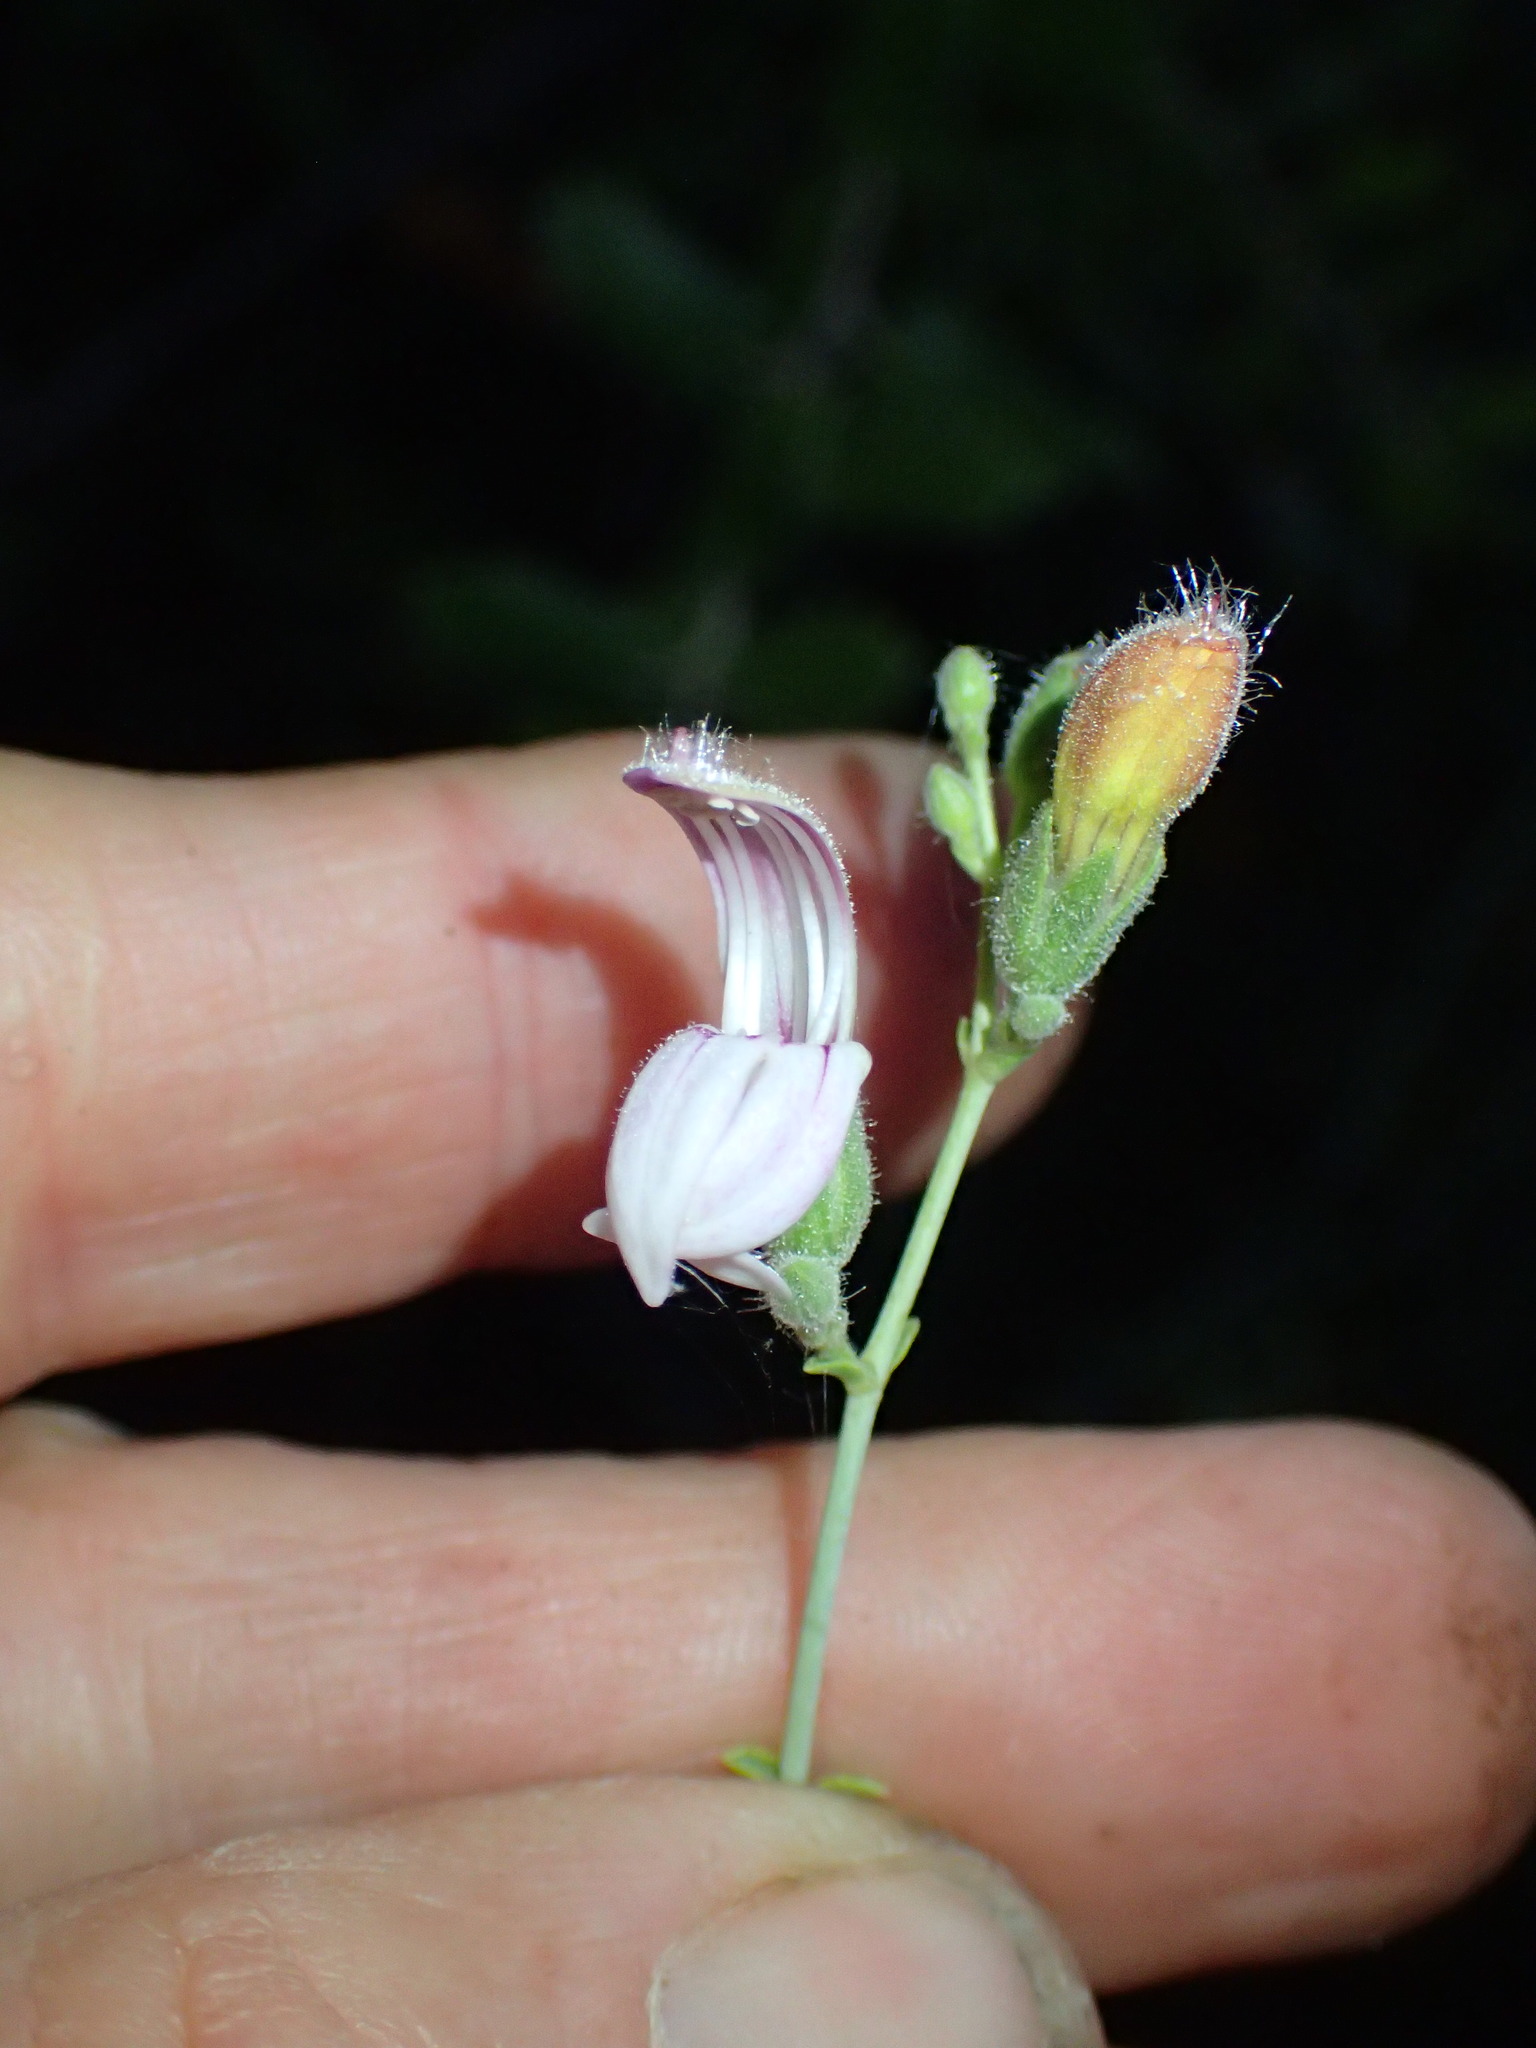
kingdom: Plantae
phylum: Tracheophyta
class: Magnoliopsida
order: Lamiales
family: Plantaginaceae
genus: Keckiella
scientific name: Keckiella breviflora
